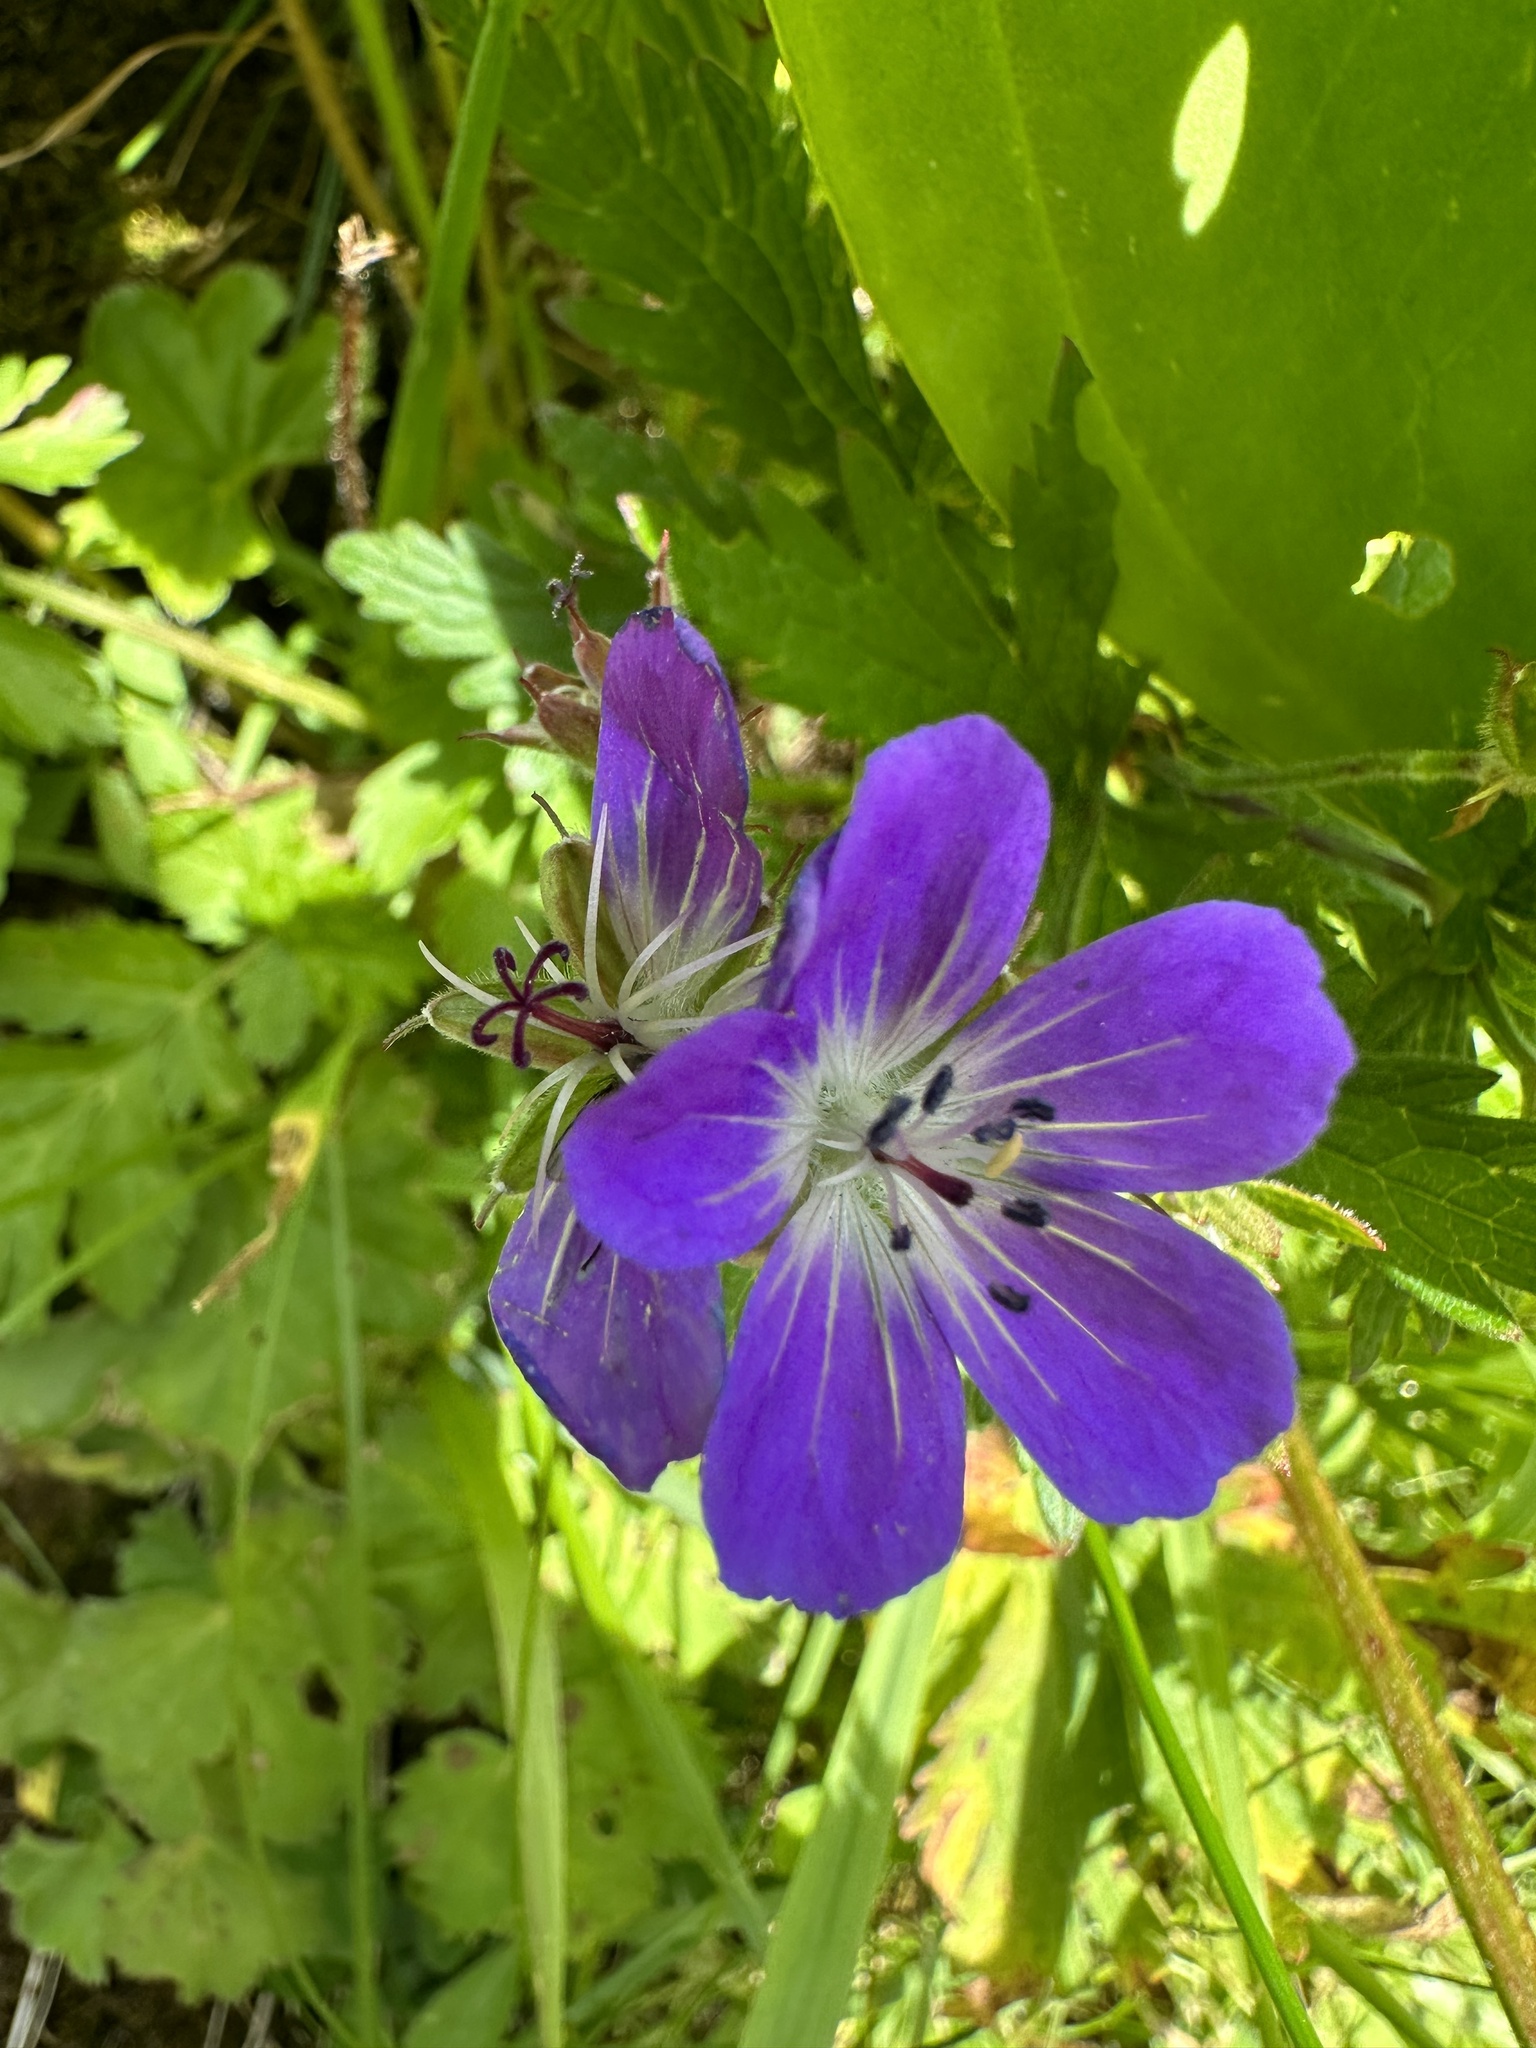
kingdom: Plantae
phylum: Tracheophyta
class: Magnoliopsida
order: Geraniales
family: Geraniaceae
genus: Geranium
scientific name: Geranium sylvaticum
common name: Wood crane's-bill
